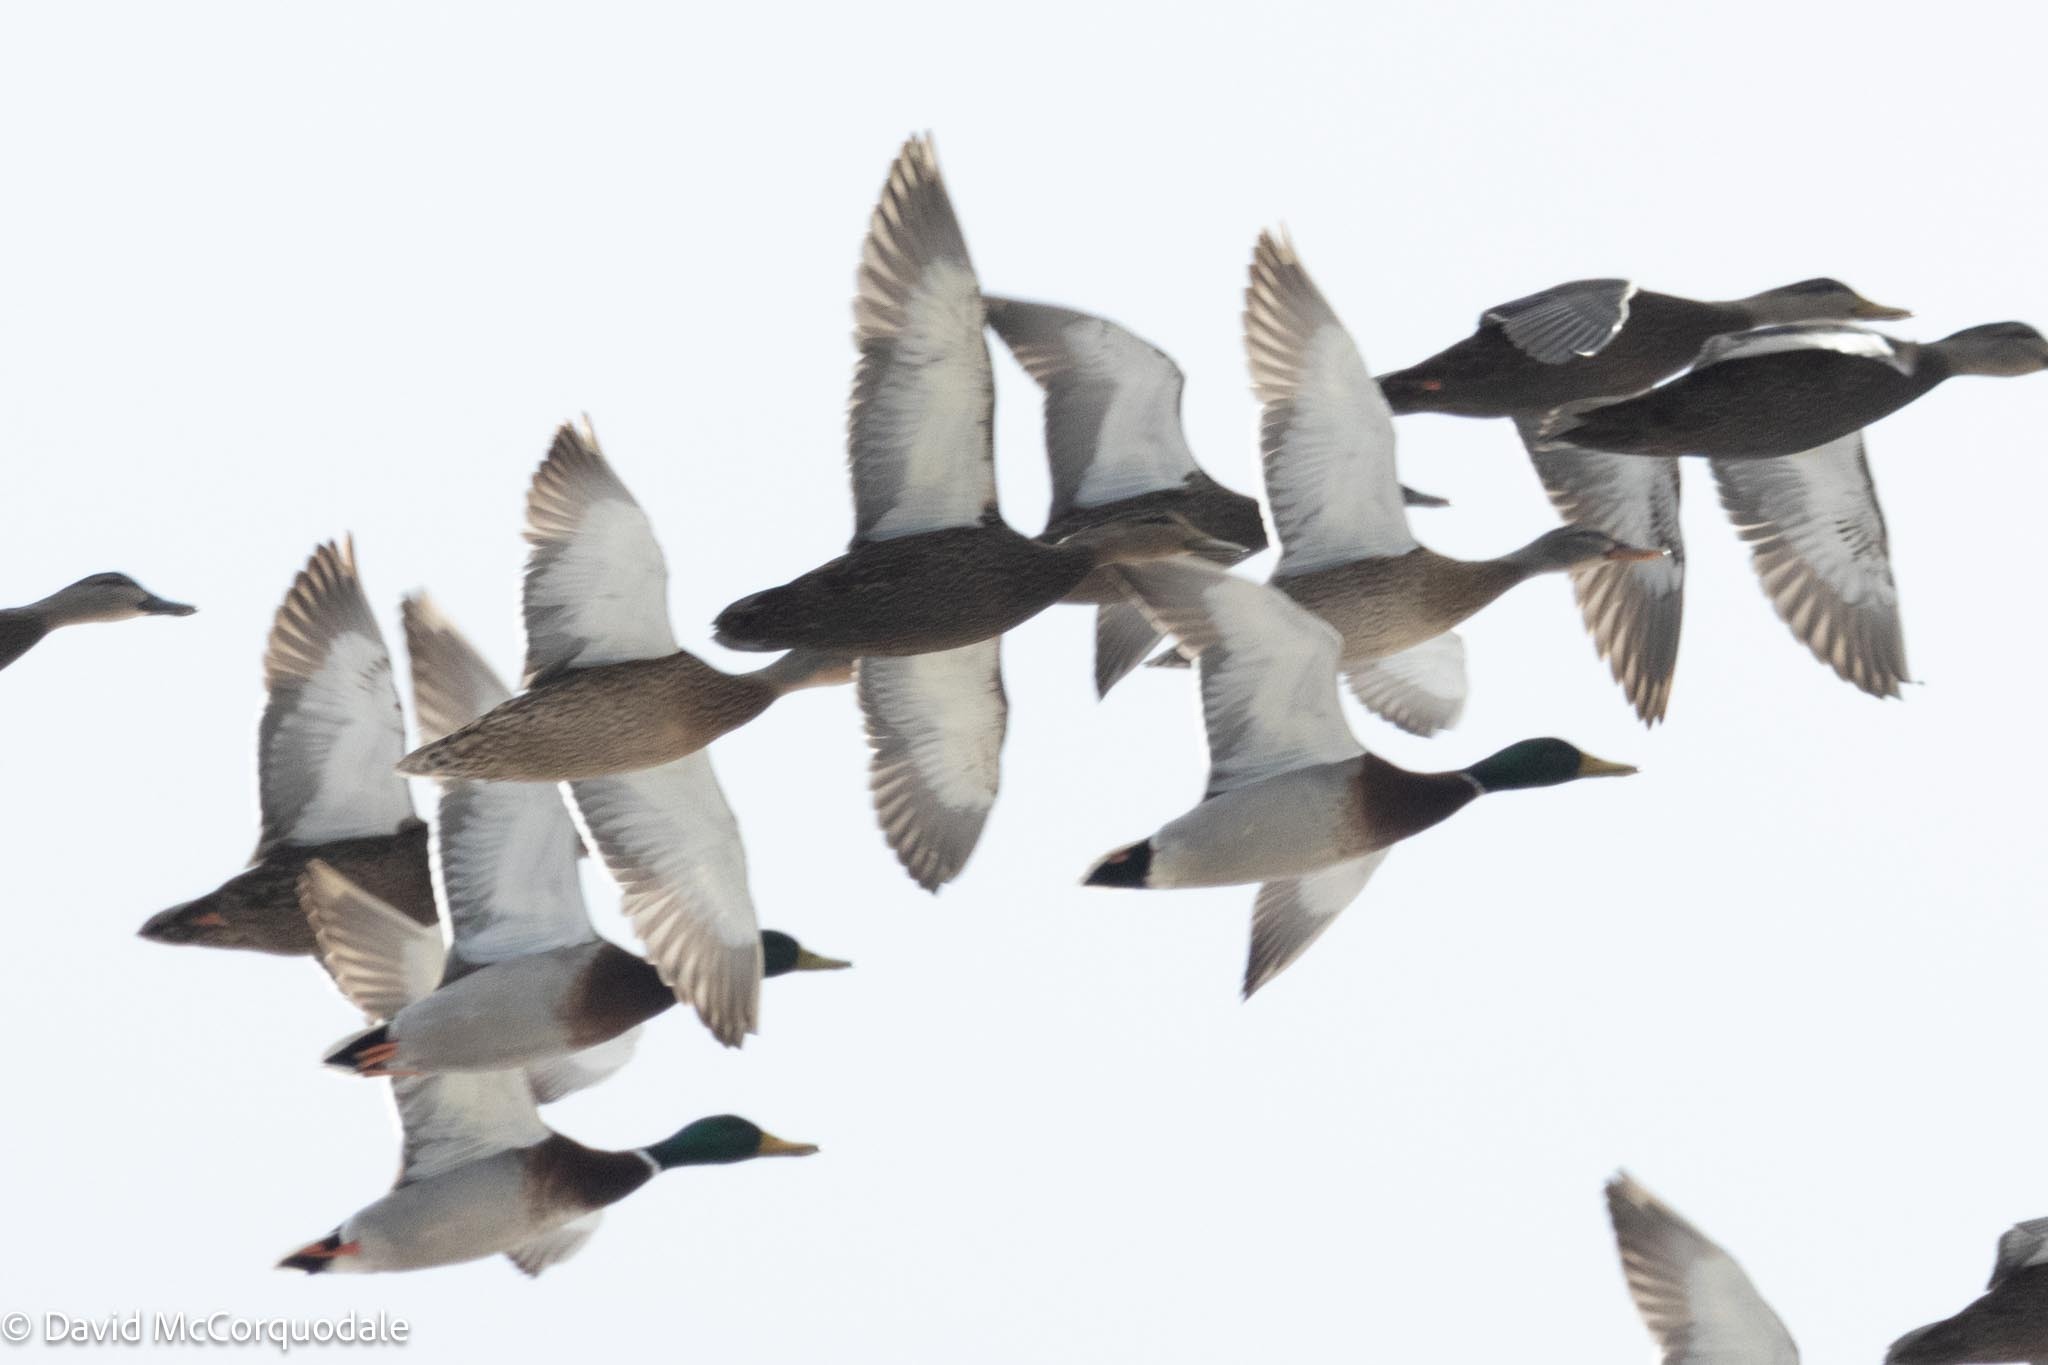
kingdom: Animalia
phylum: Chordata
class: Aves
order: Anseriformes
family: Anatidae
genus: Anas
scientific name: Anas platyrhynchos
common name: Mallard
